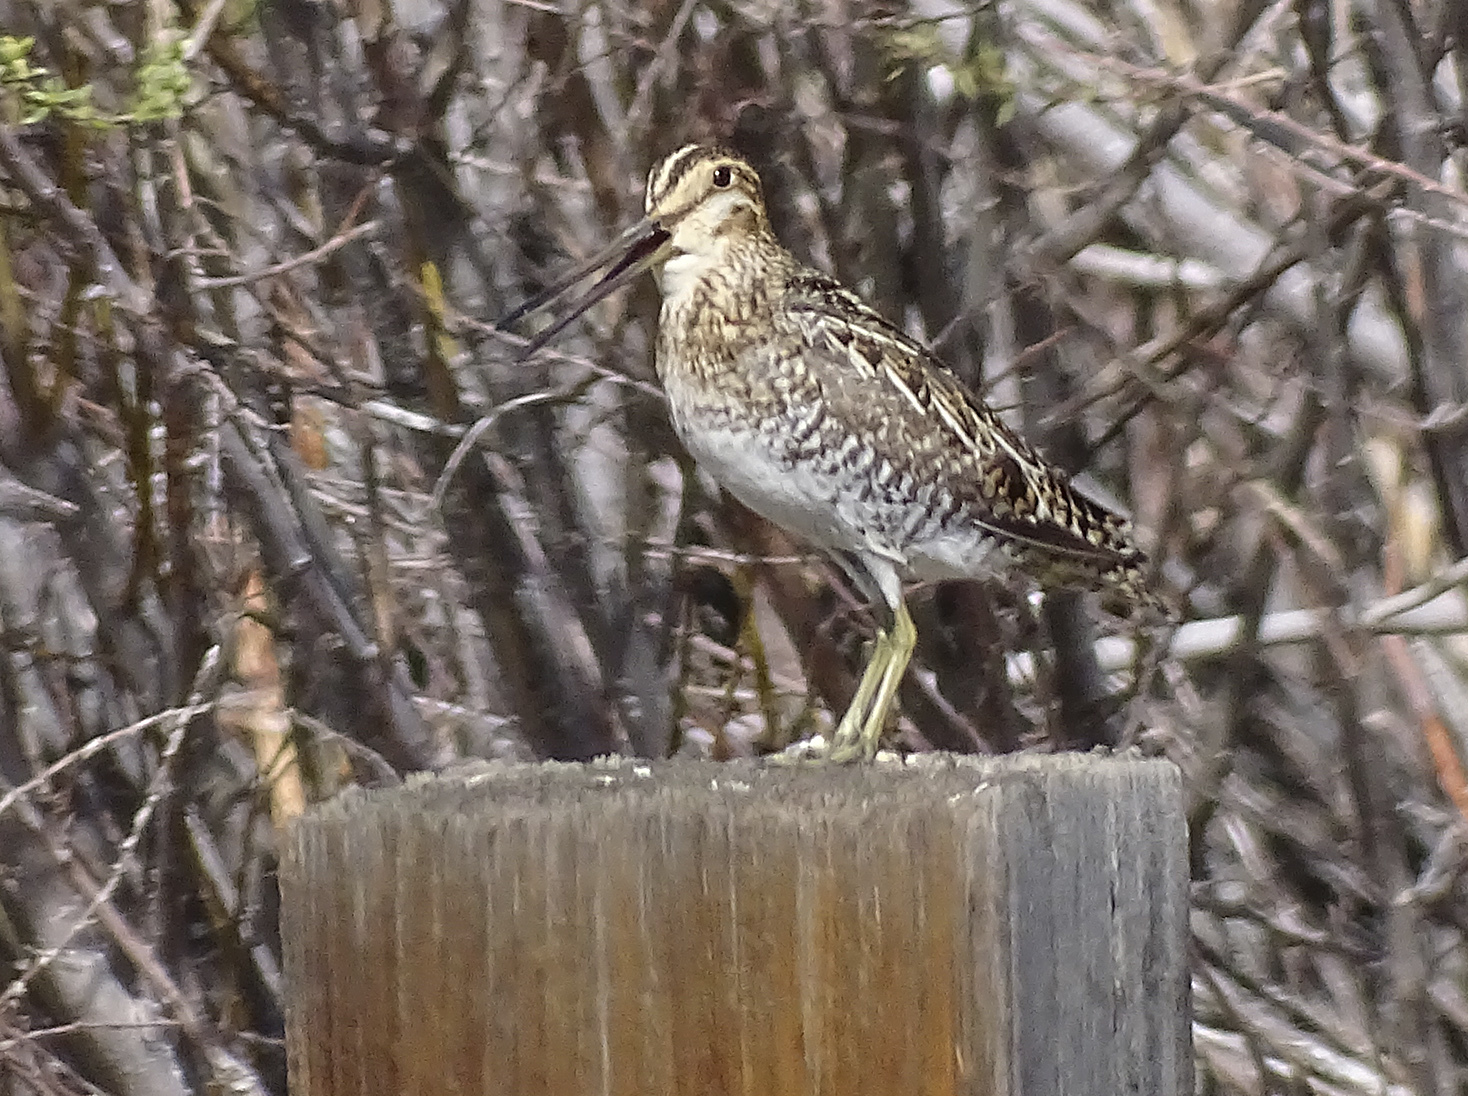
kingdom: Animalia
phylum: Chordata
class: Aves
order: Charadriiformes
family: Scolopacidae
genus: Gallinago
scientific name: Gallinago delicata
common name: Wilson's snipe
